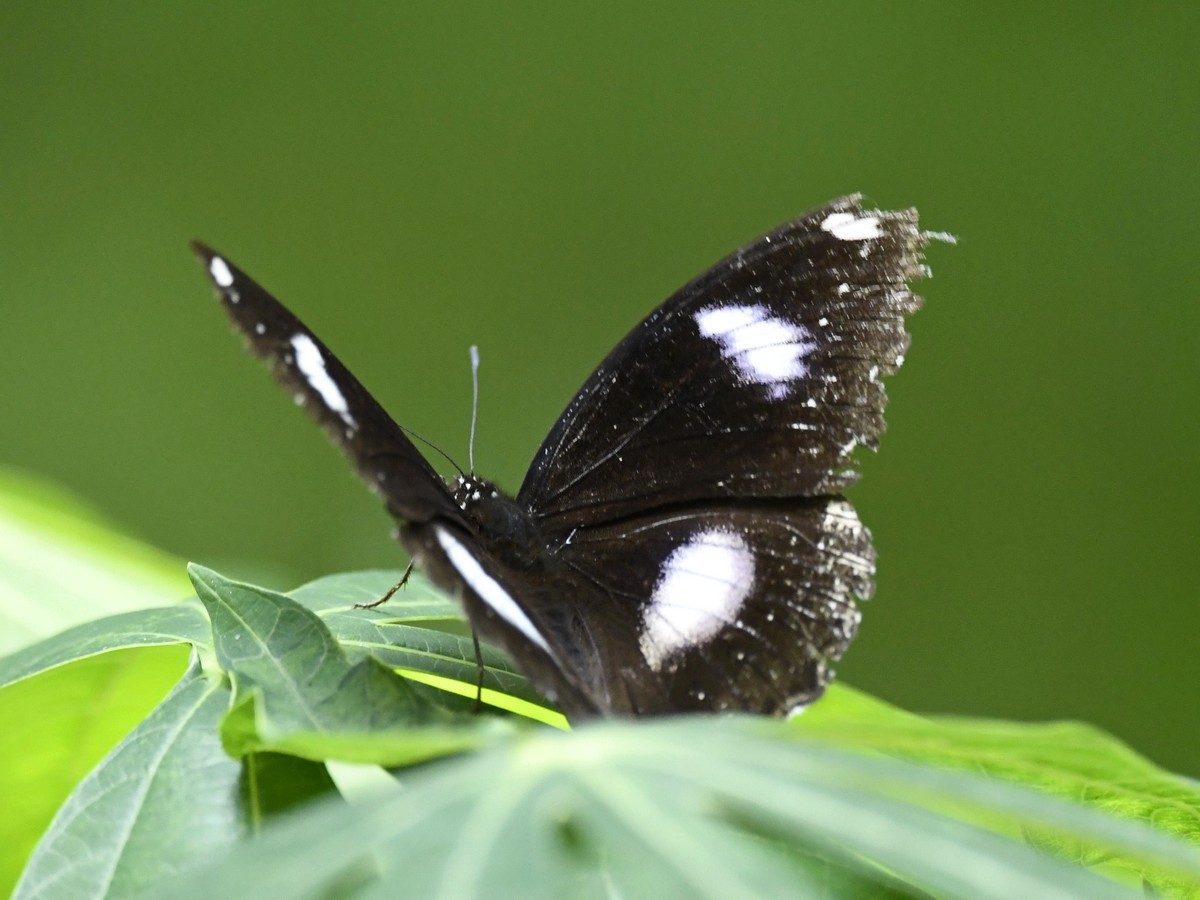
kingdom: Animalia
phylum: Arthropoda
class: Insecta
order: Lepidoptera
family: Nymphalidae
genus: Hypolimnas
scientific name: Hypolimnas bolina
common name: Great eggfly
